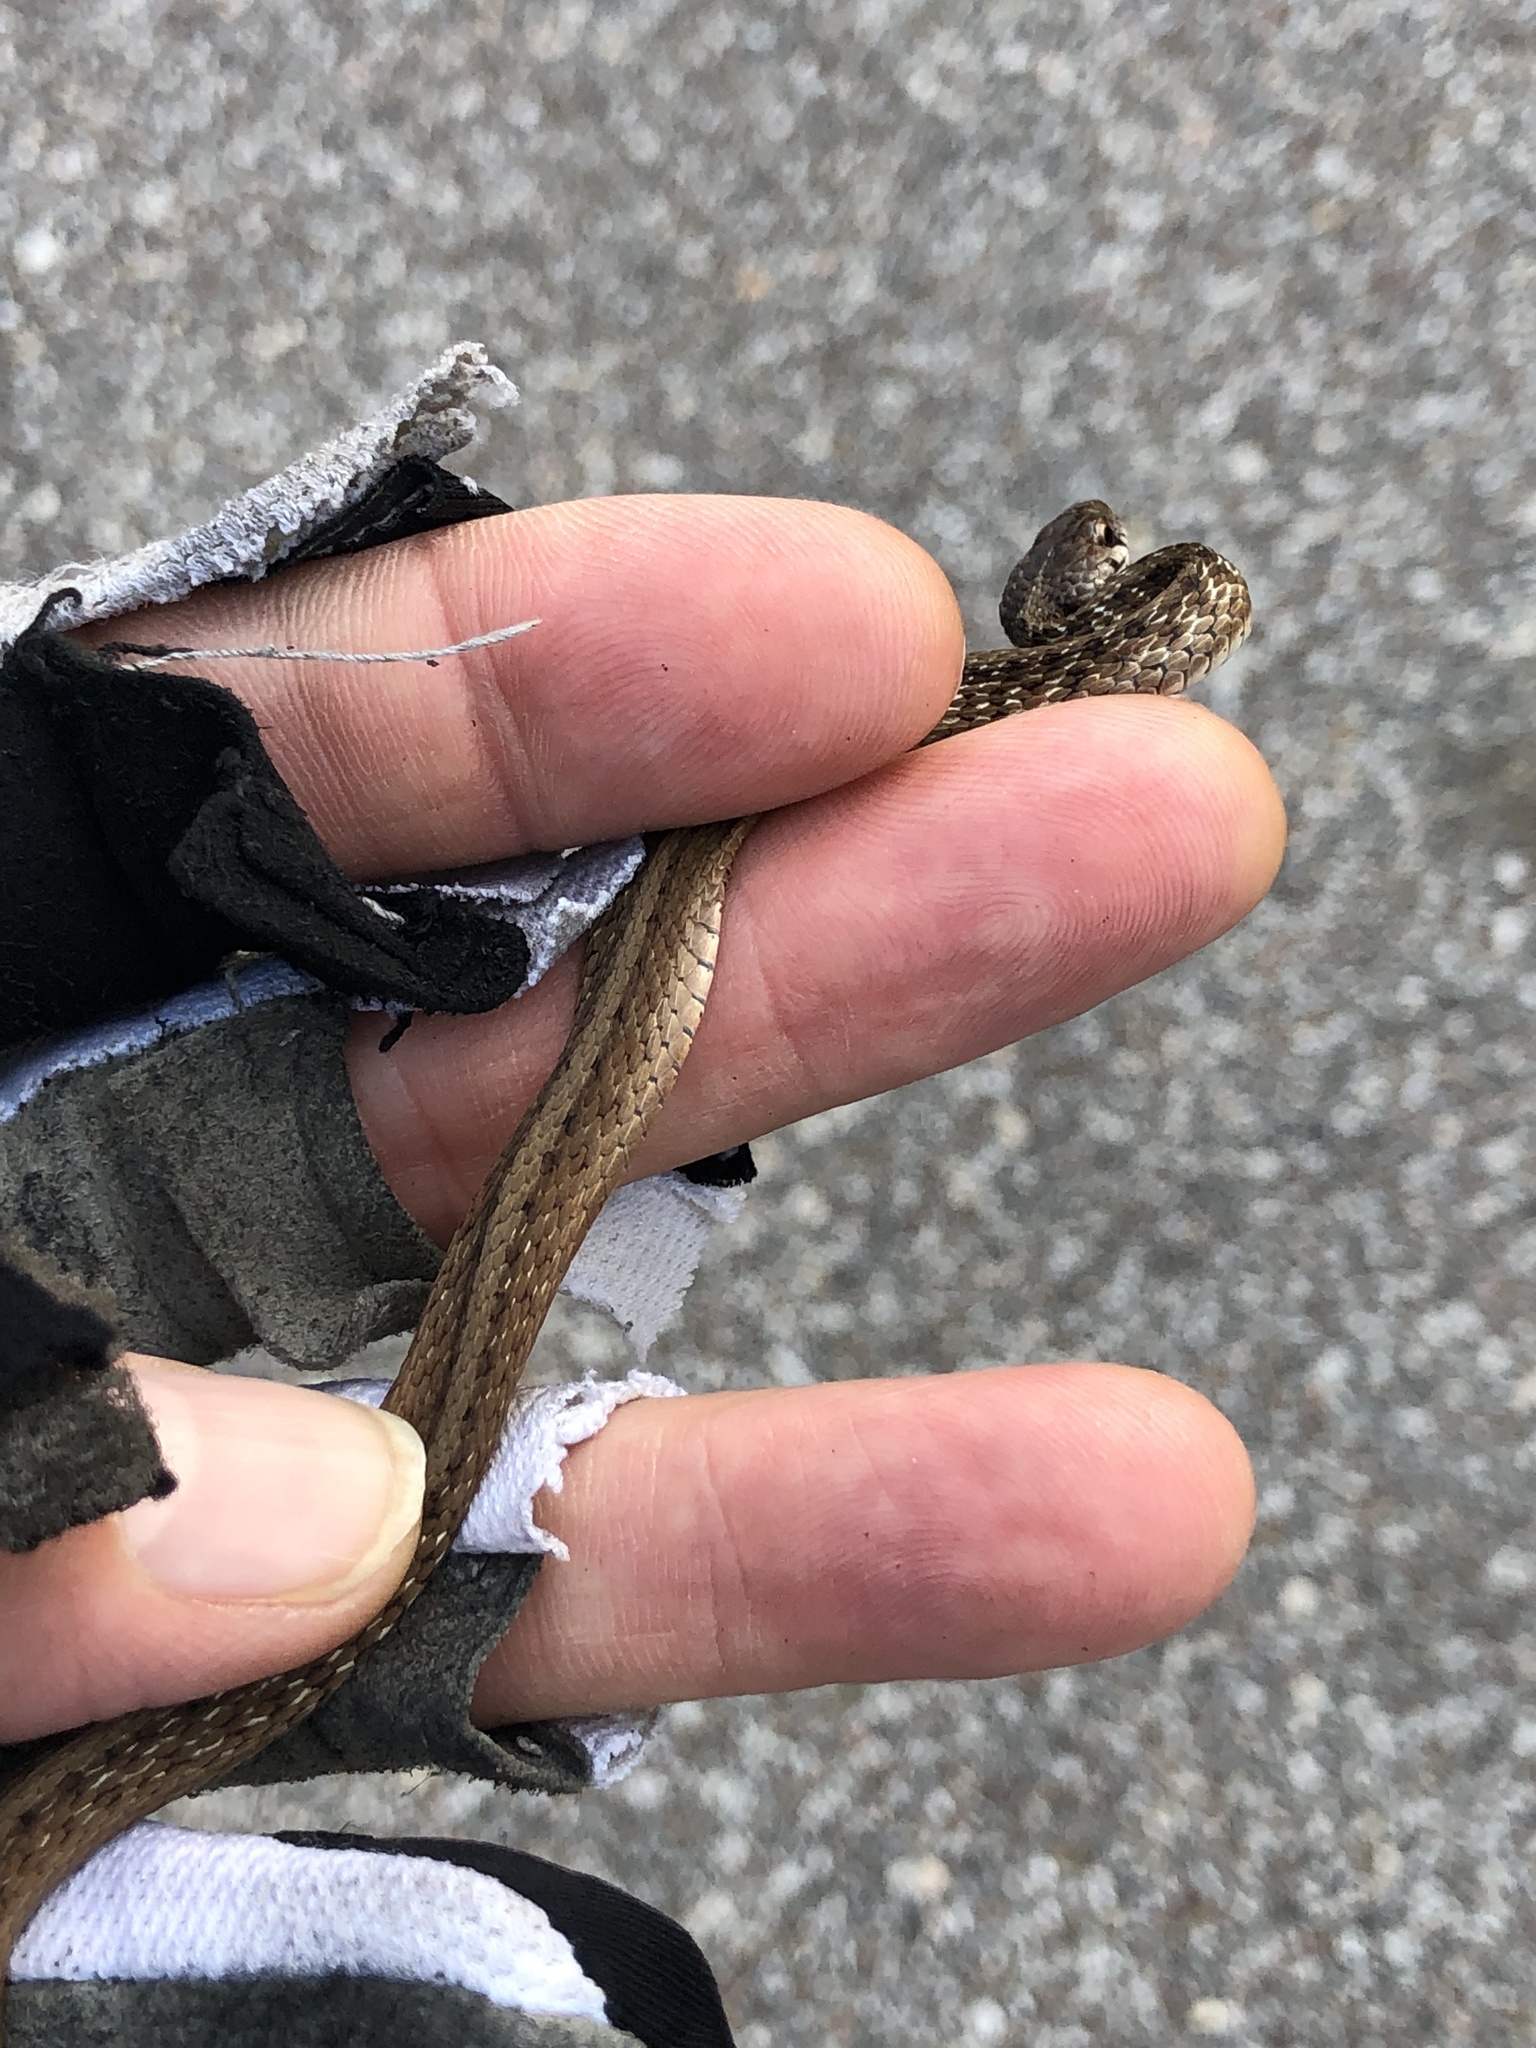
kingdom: Animalia
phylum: Chordata
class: Squamata
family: Colubridae
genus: Storeria
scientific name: Storeria dekayi
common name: (dekay’s) brown snake
